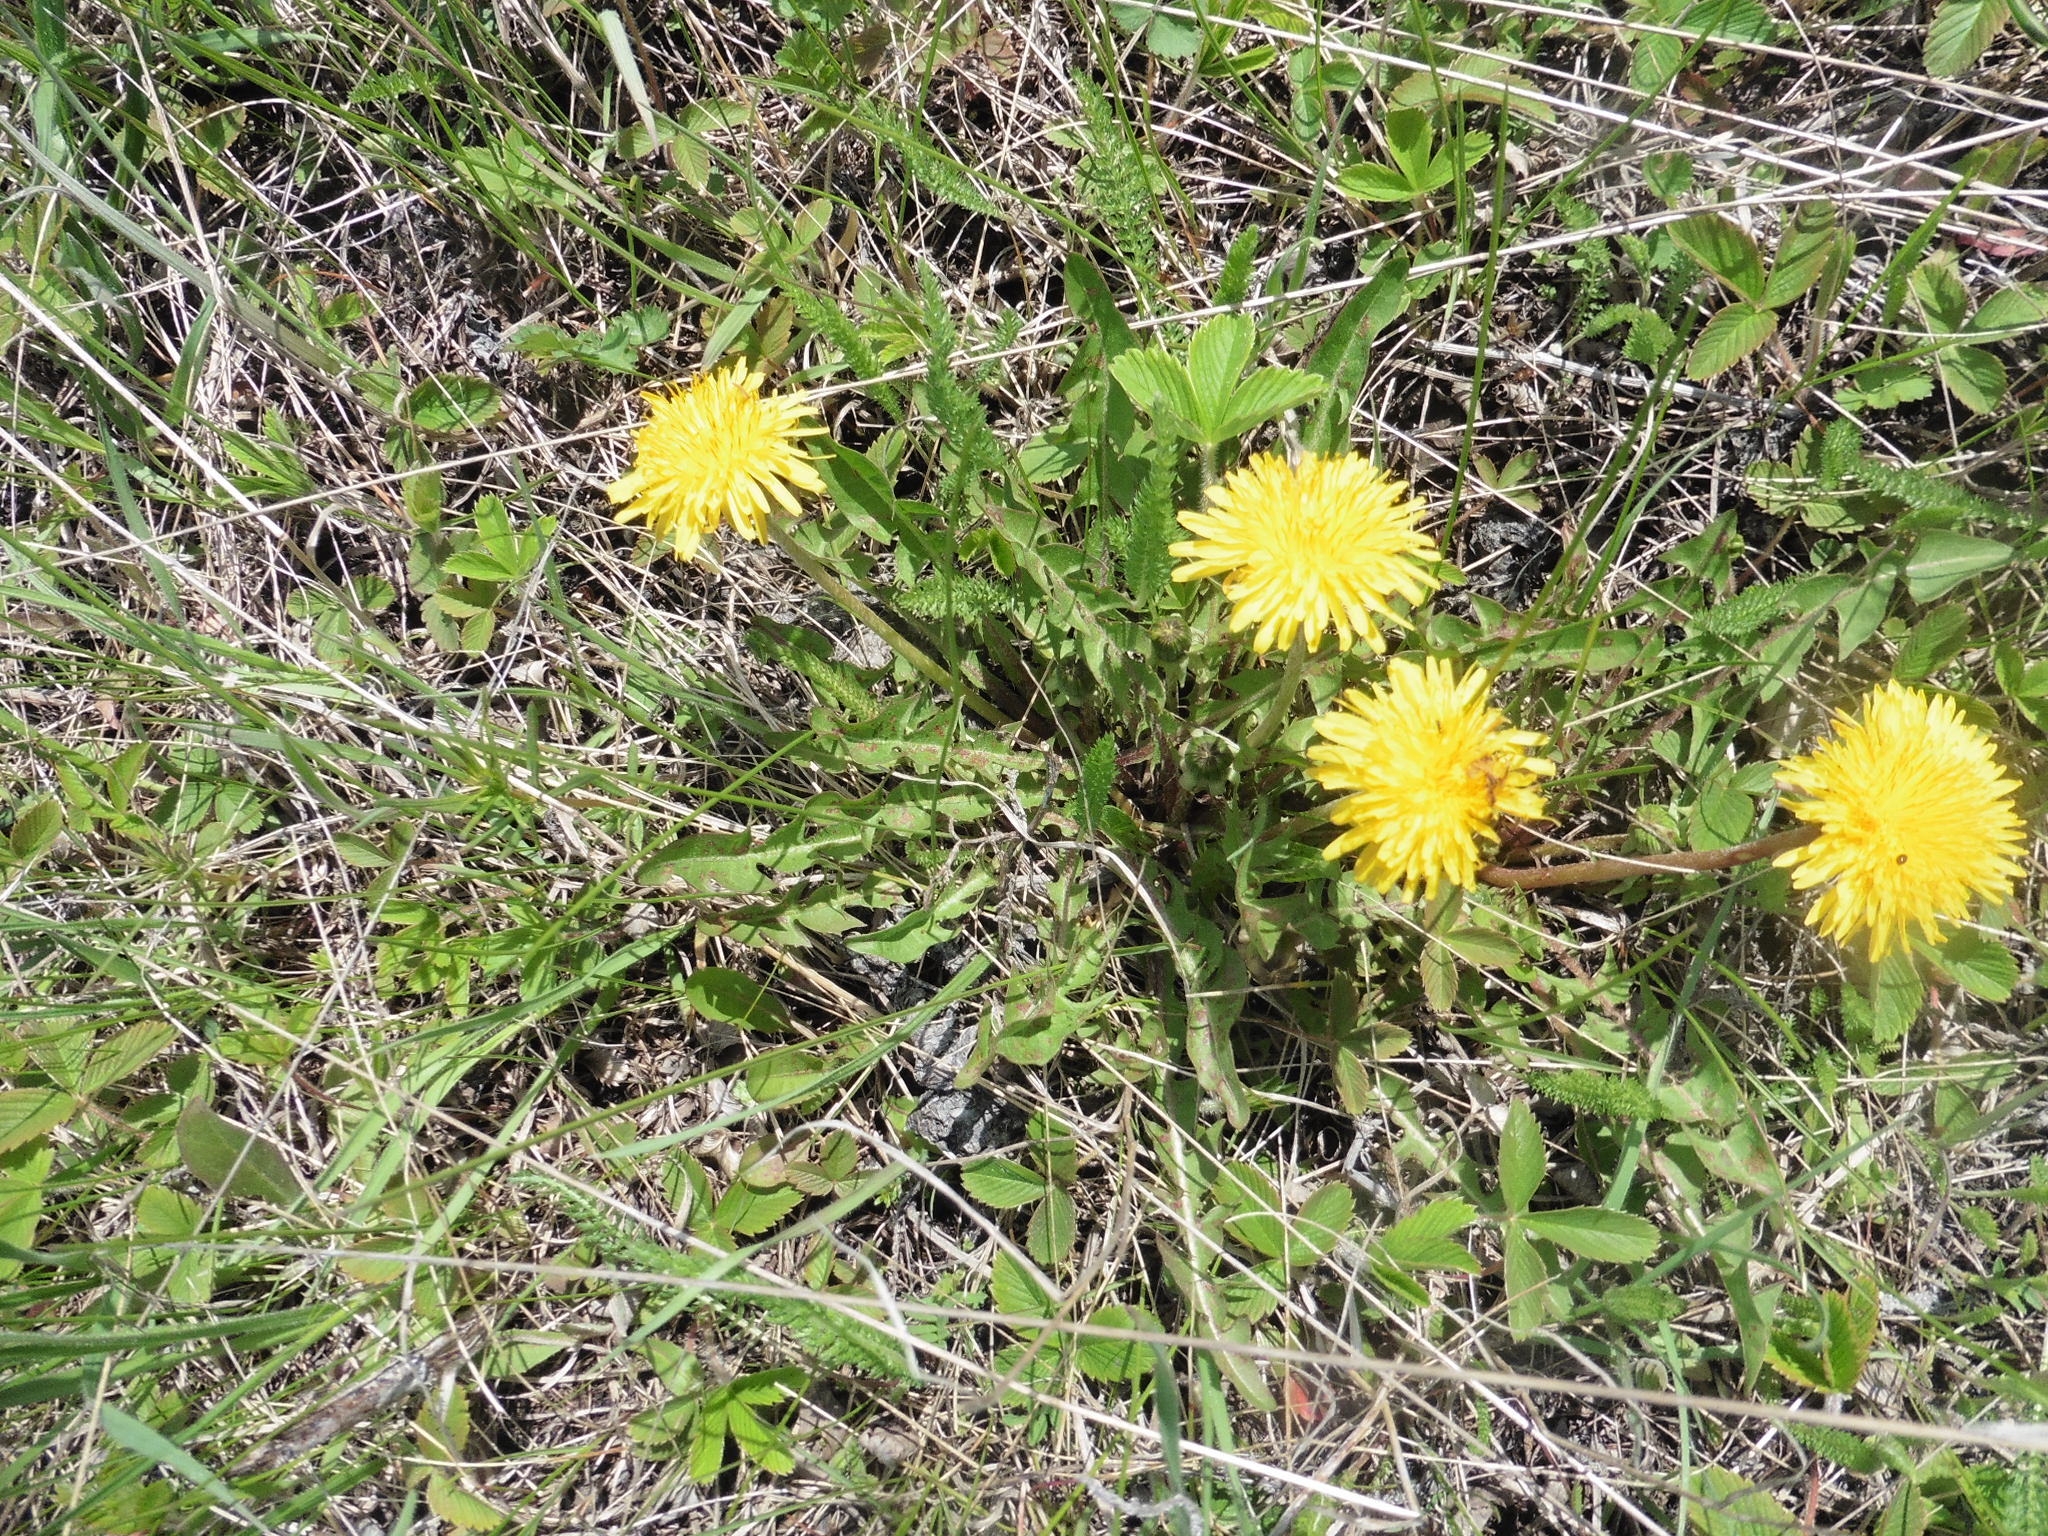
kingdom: Plantae
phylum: Tracheophyta
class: Magnoliopsida
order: Asterales
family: Asteraceae
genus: Taraxacum
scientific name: Taraxacum officinale
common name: Common dandelion
